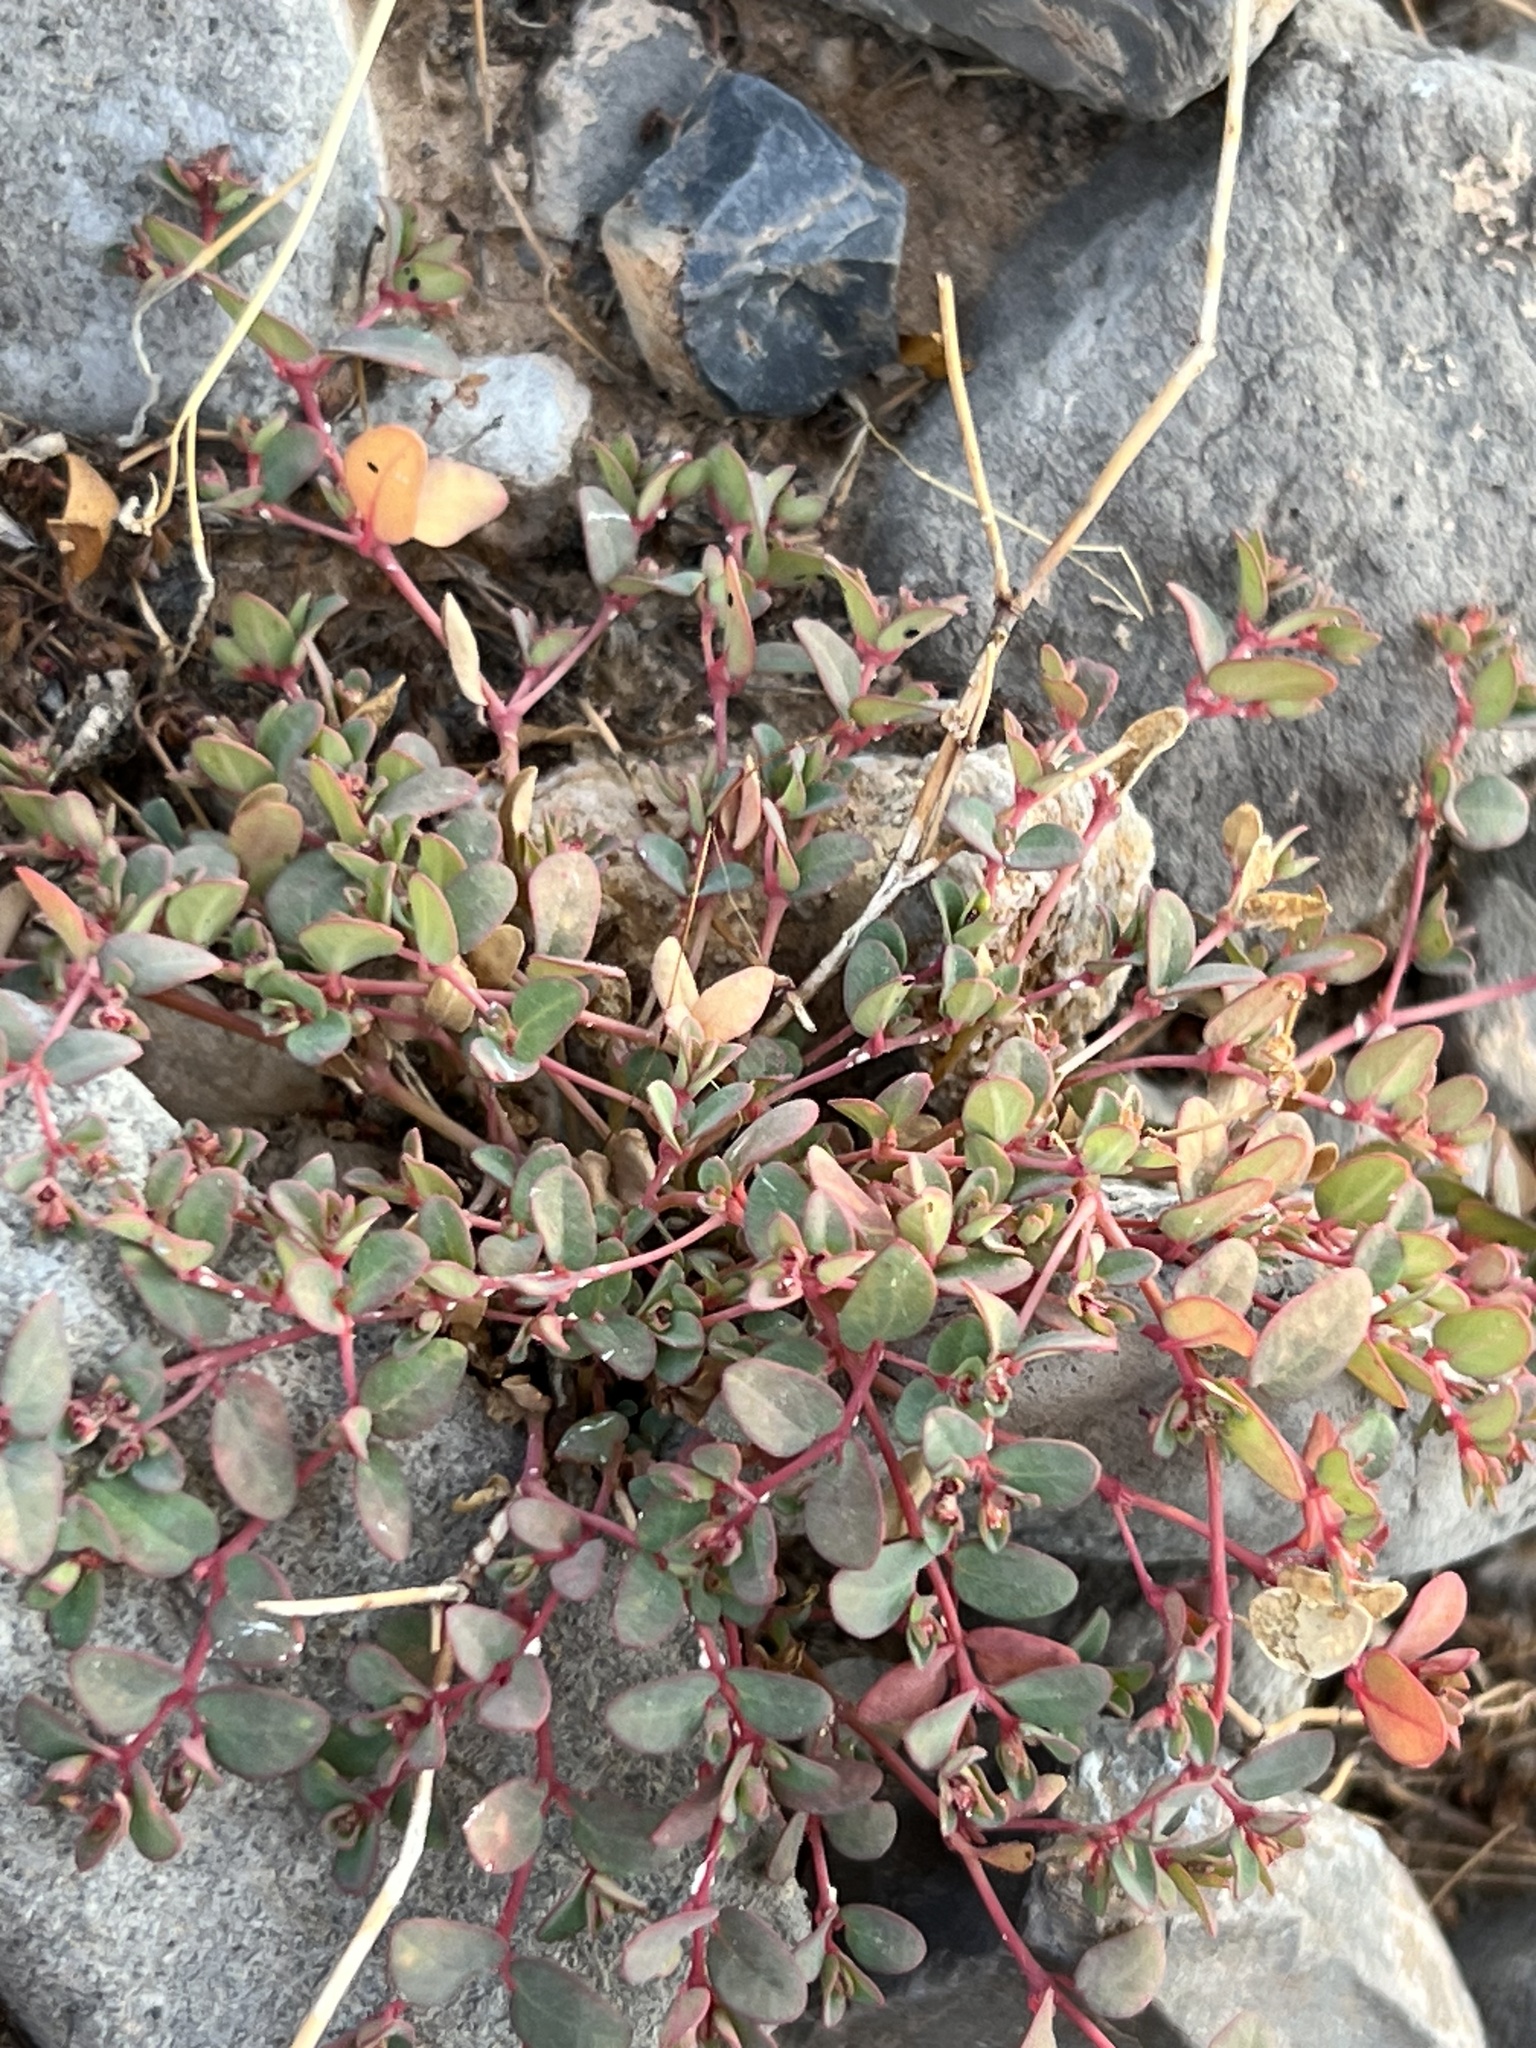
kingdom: Plantae
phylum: Tracheophyta
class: Magnoliopsida
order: Malpighiales
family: Euphorbiaceae
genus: Euphorbia
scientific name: Euphorbia polycarpa
